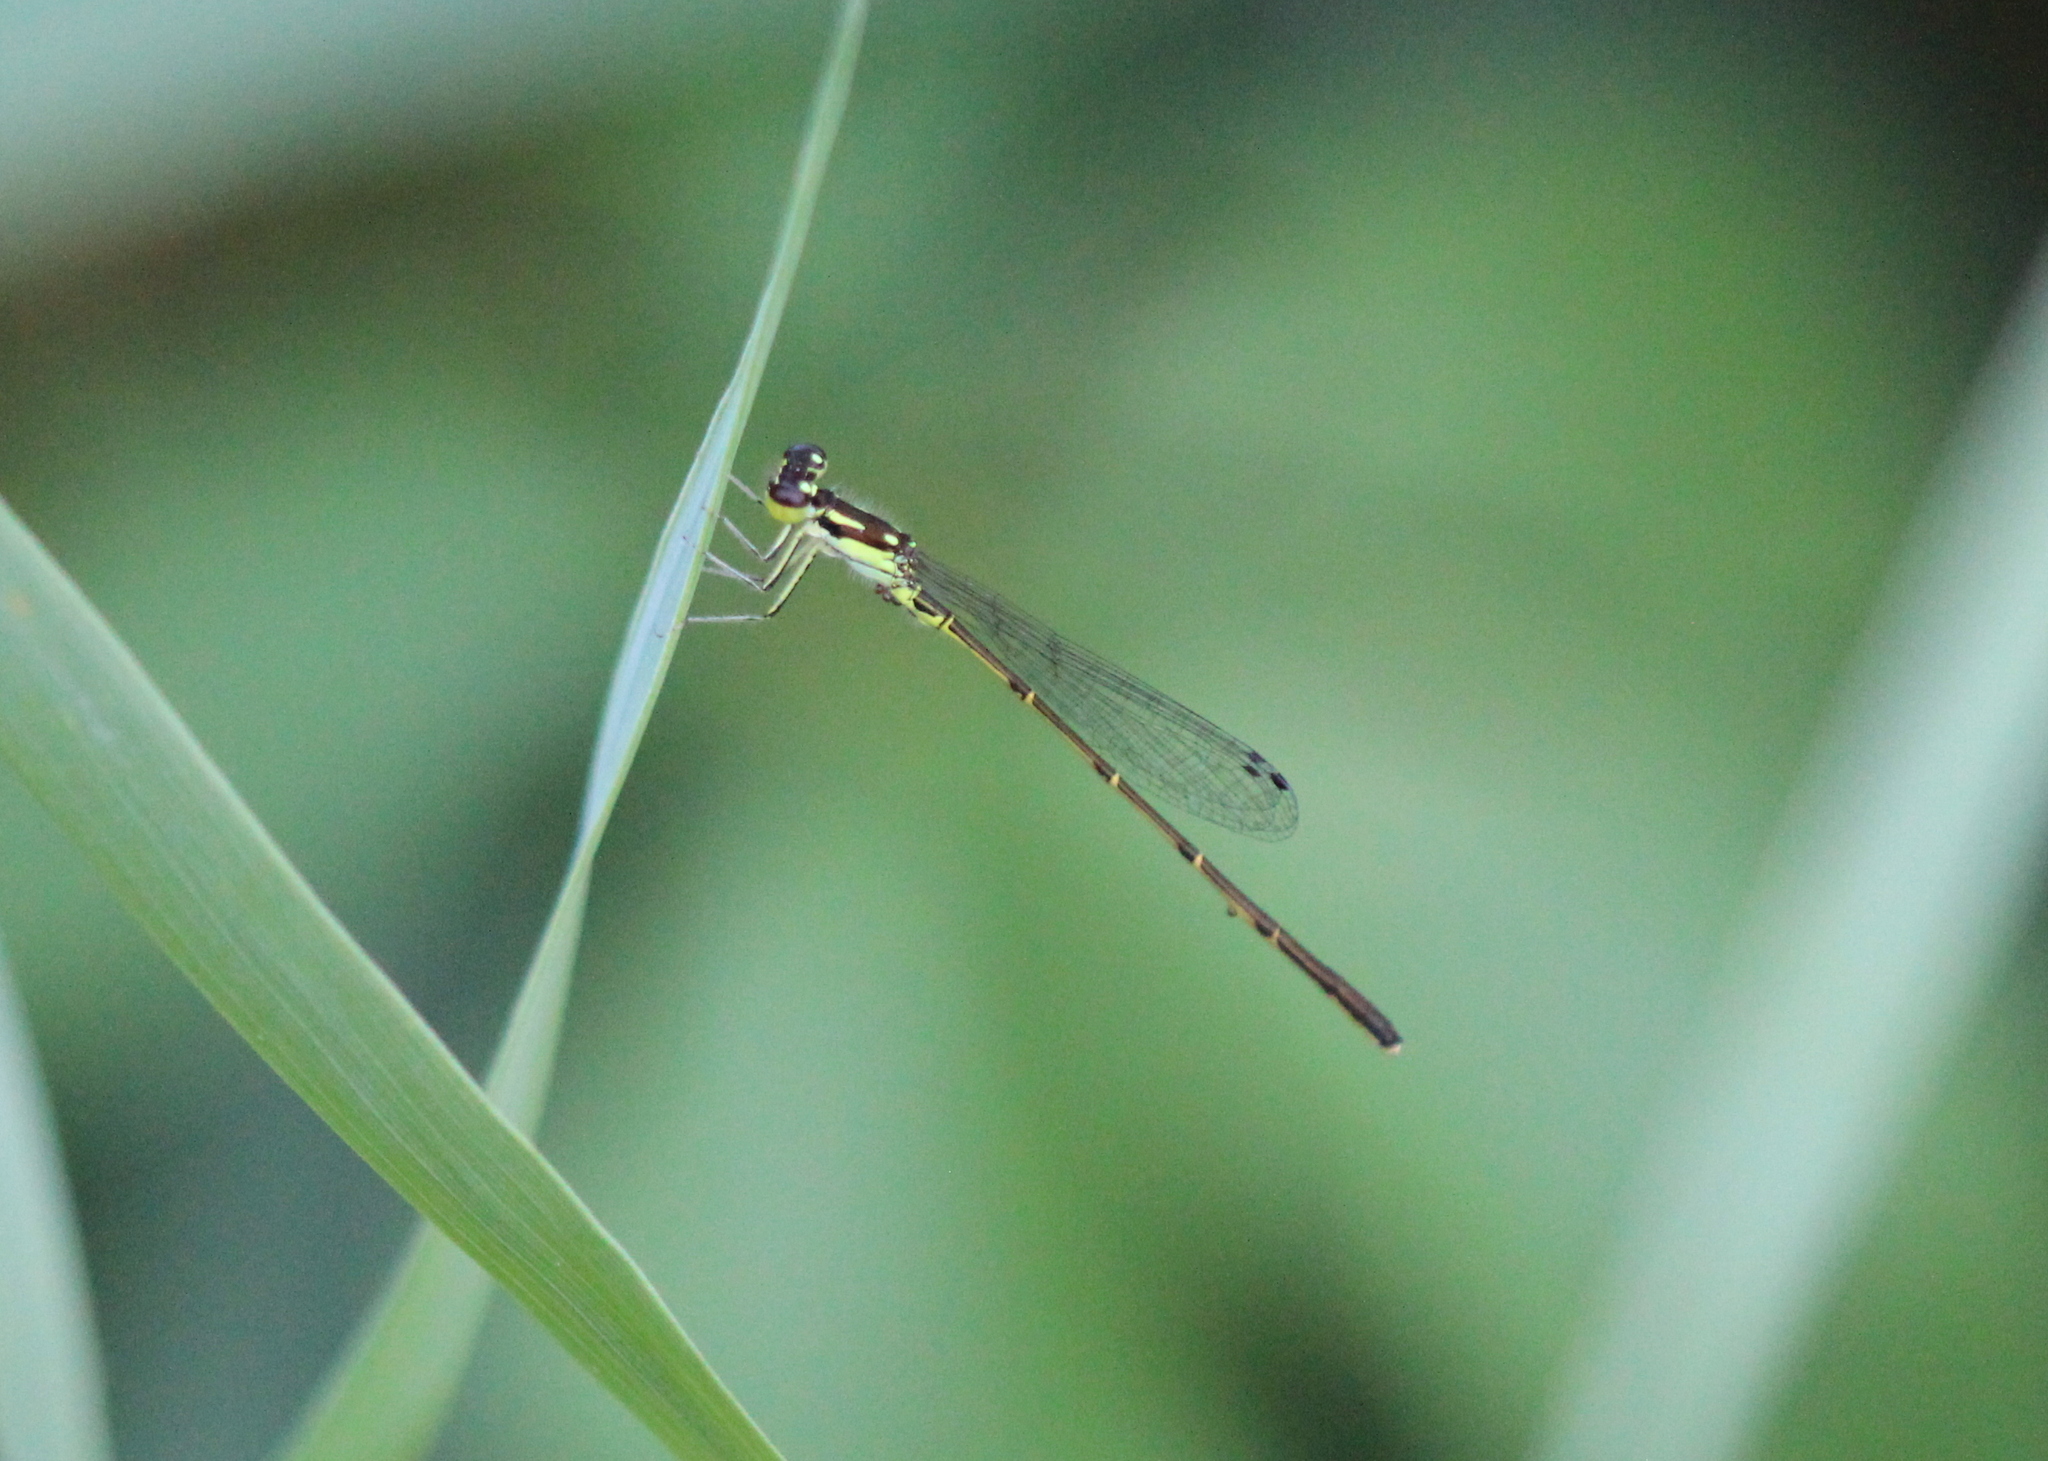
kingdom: Animalia
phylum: Arthropoda
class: Insecta
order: Odonata
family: Coenagrionidae
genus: Ischnura
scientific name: Ischnura posita
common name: Fragile forktail
